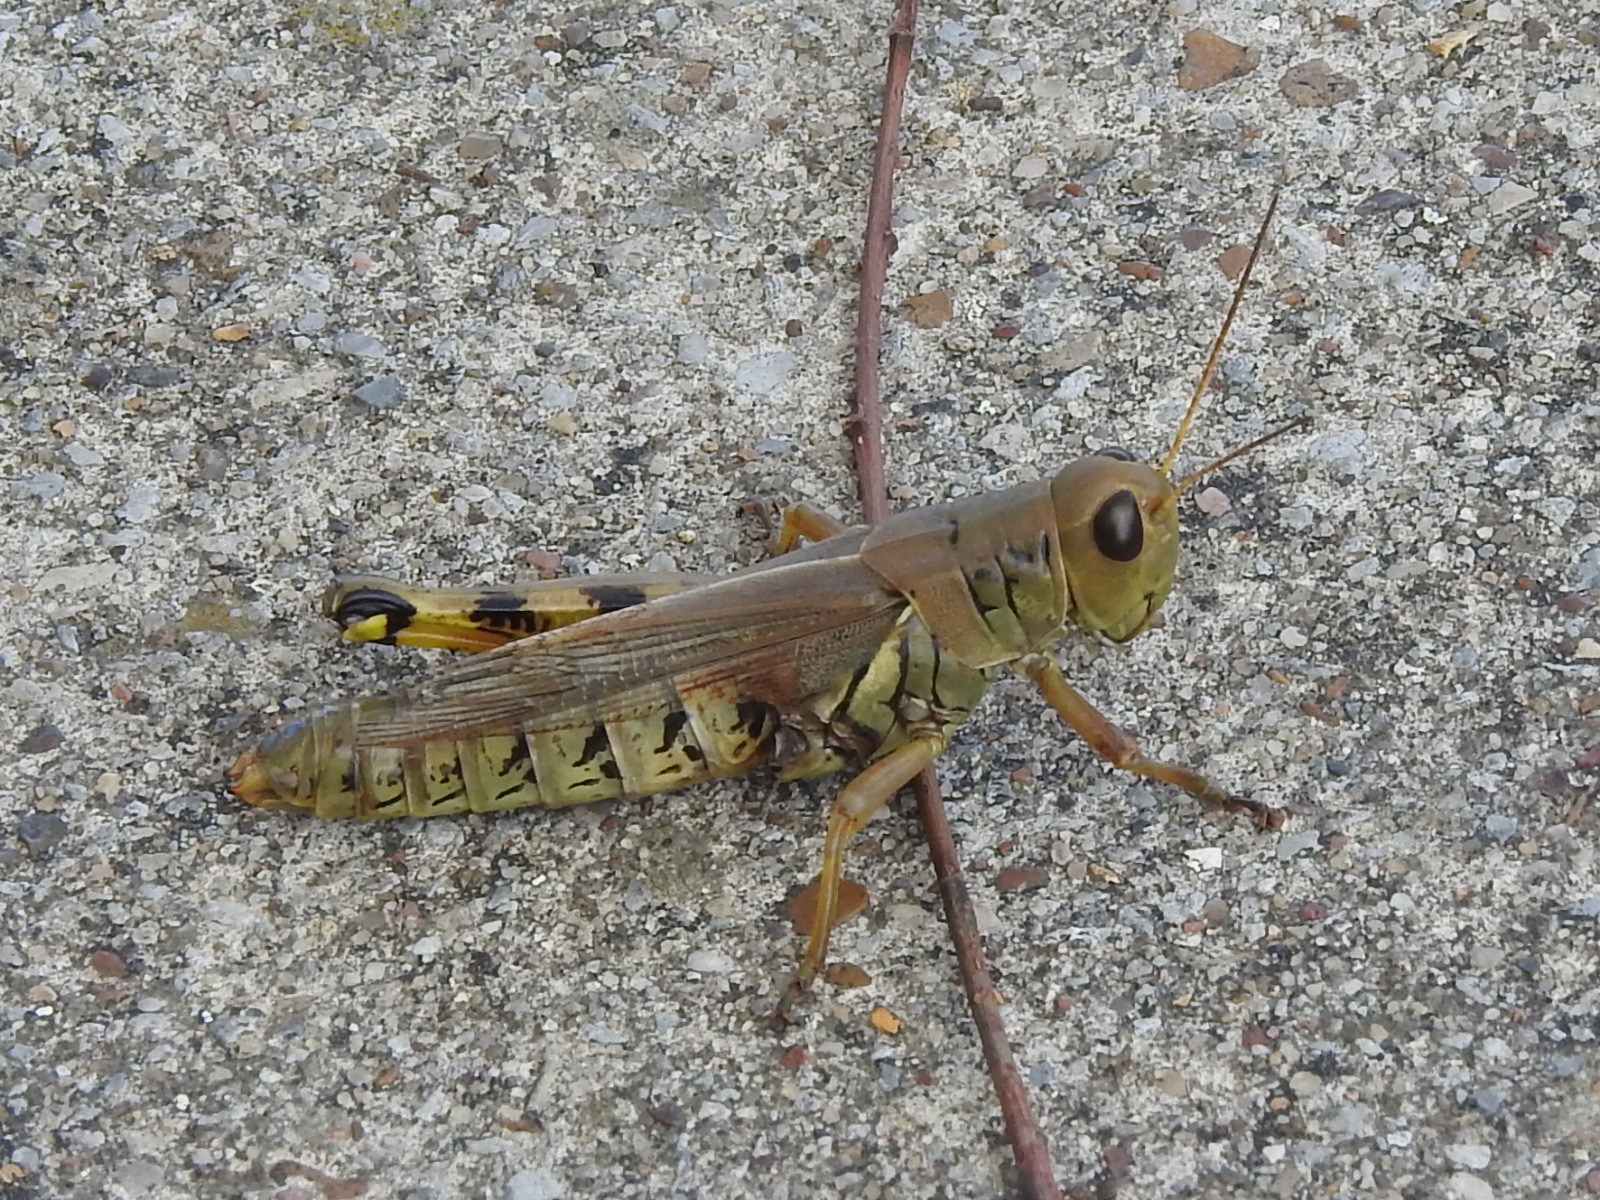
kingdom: Animalia
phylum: Arthropoda
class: Insecta
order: Orthoptera
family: Acrididae
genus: Melanoplus
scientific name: Melanoplus differentialis
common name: Differential grasshopper
